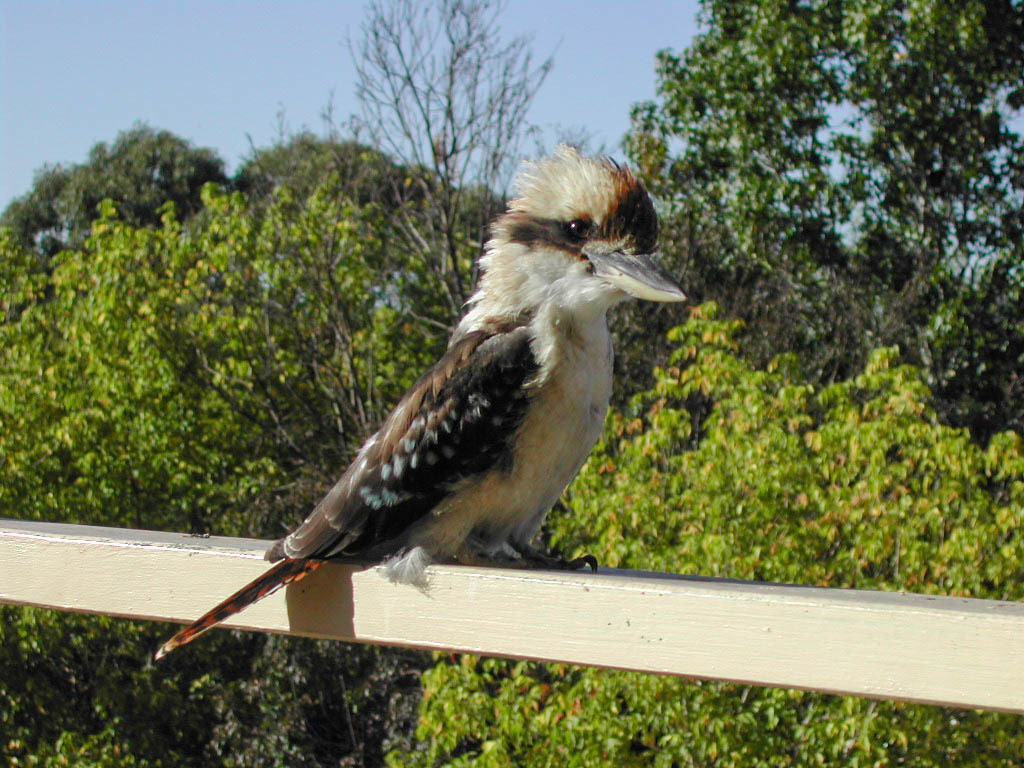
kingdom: Animalia
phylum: Chordata
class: Aves
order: Coraciiformes
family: Alcedinidae
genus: Dacelo
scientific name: Dacelo novaeguineae
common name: Laughing kookaburra
